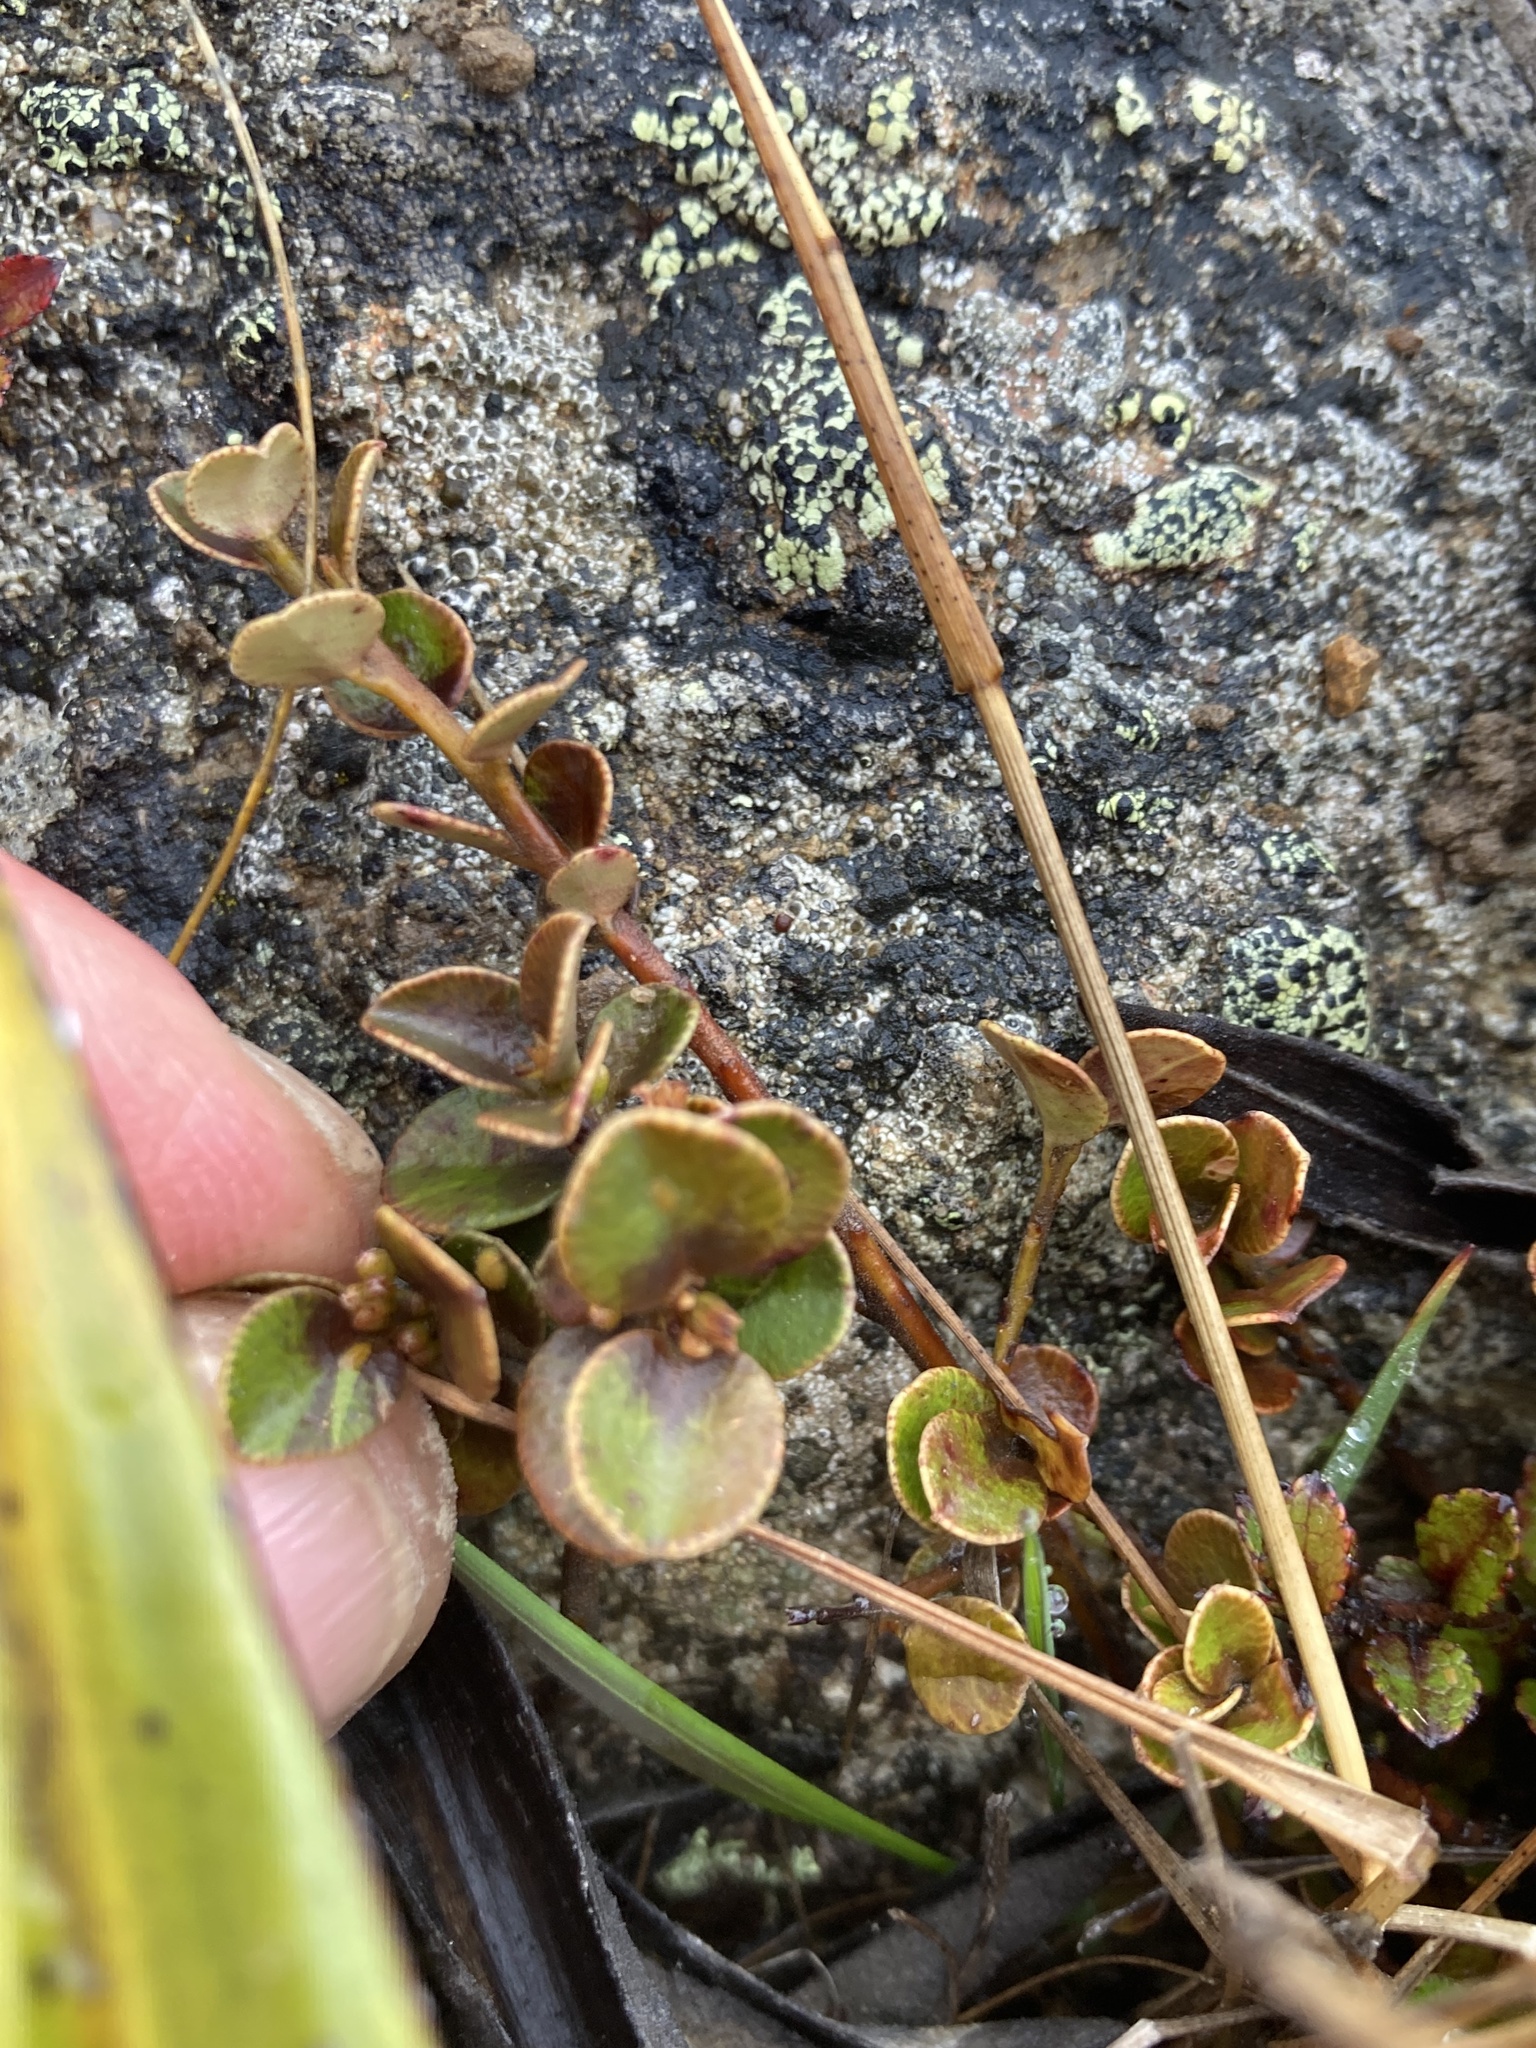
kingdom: Plantae
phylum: Tracheophyta
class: Magnoliopsida
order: Ericales
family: Primulaceae
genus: Myrsine
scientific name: Myrsine nummularia
